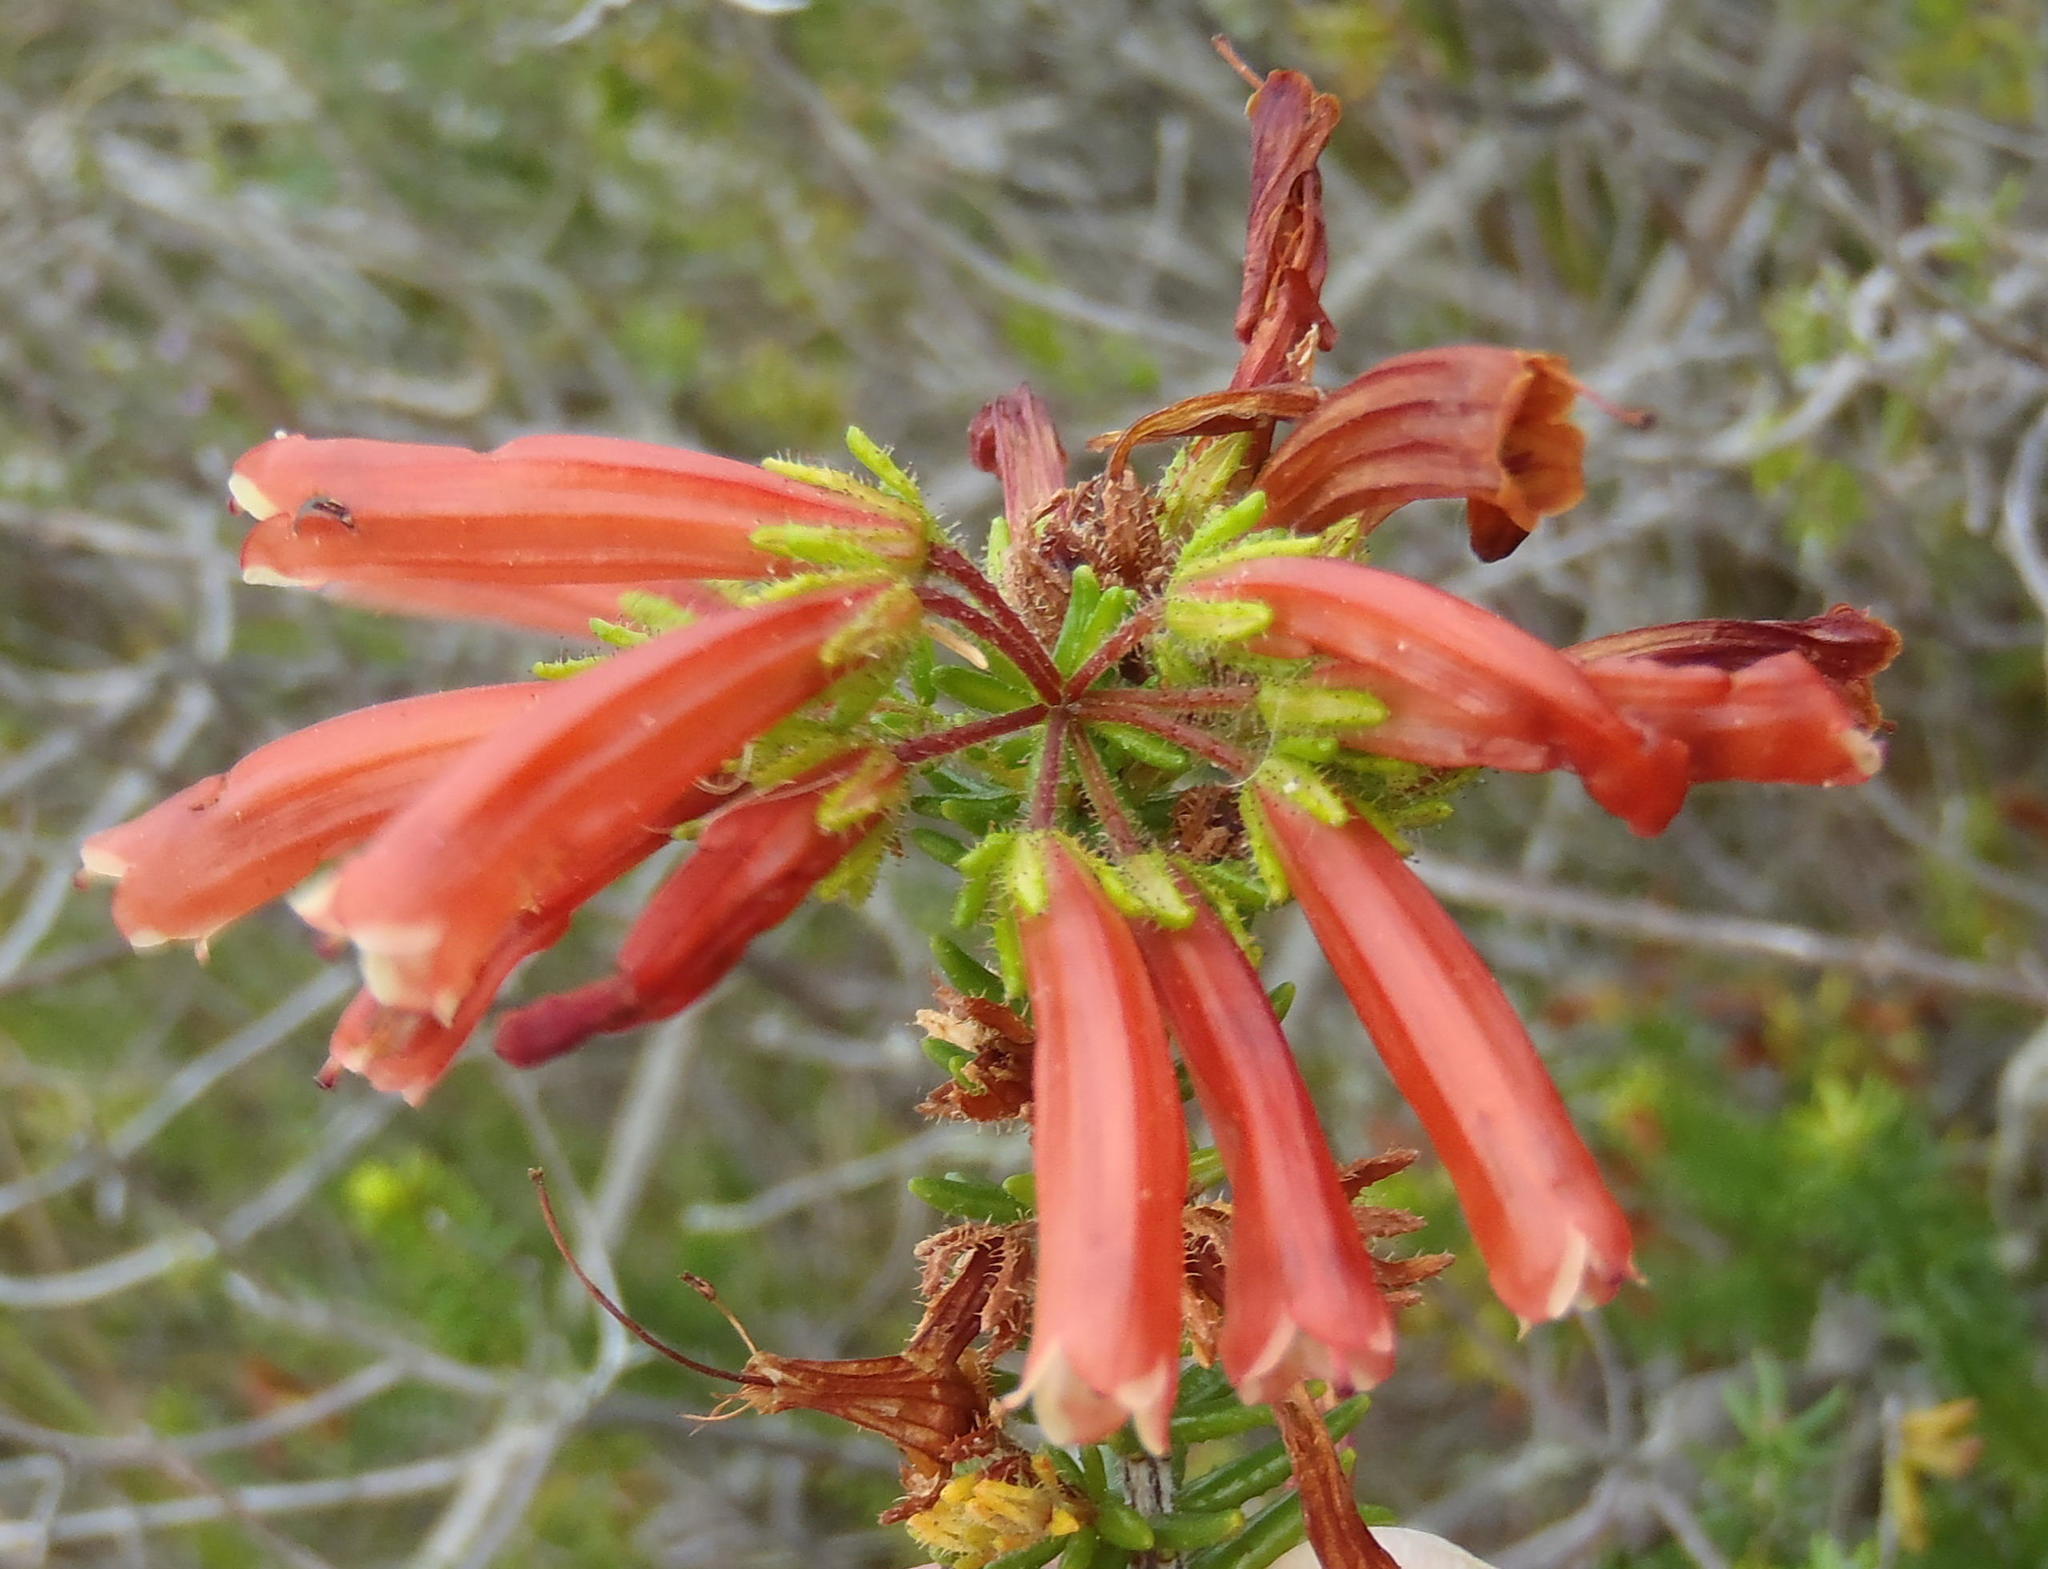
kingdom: Plantae
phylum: Tracheophyta
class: Magnoliopsida
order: Ericales
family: Ericaceae
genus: Erica
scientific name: Erica glandulosa
